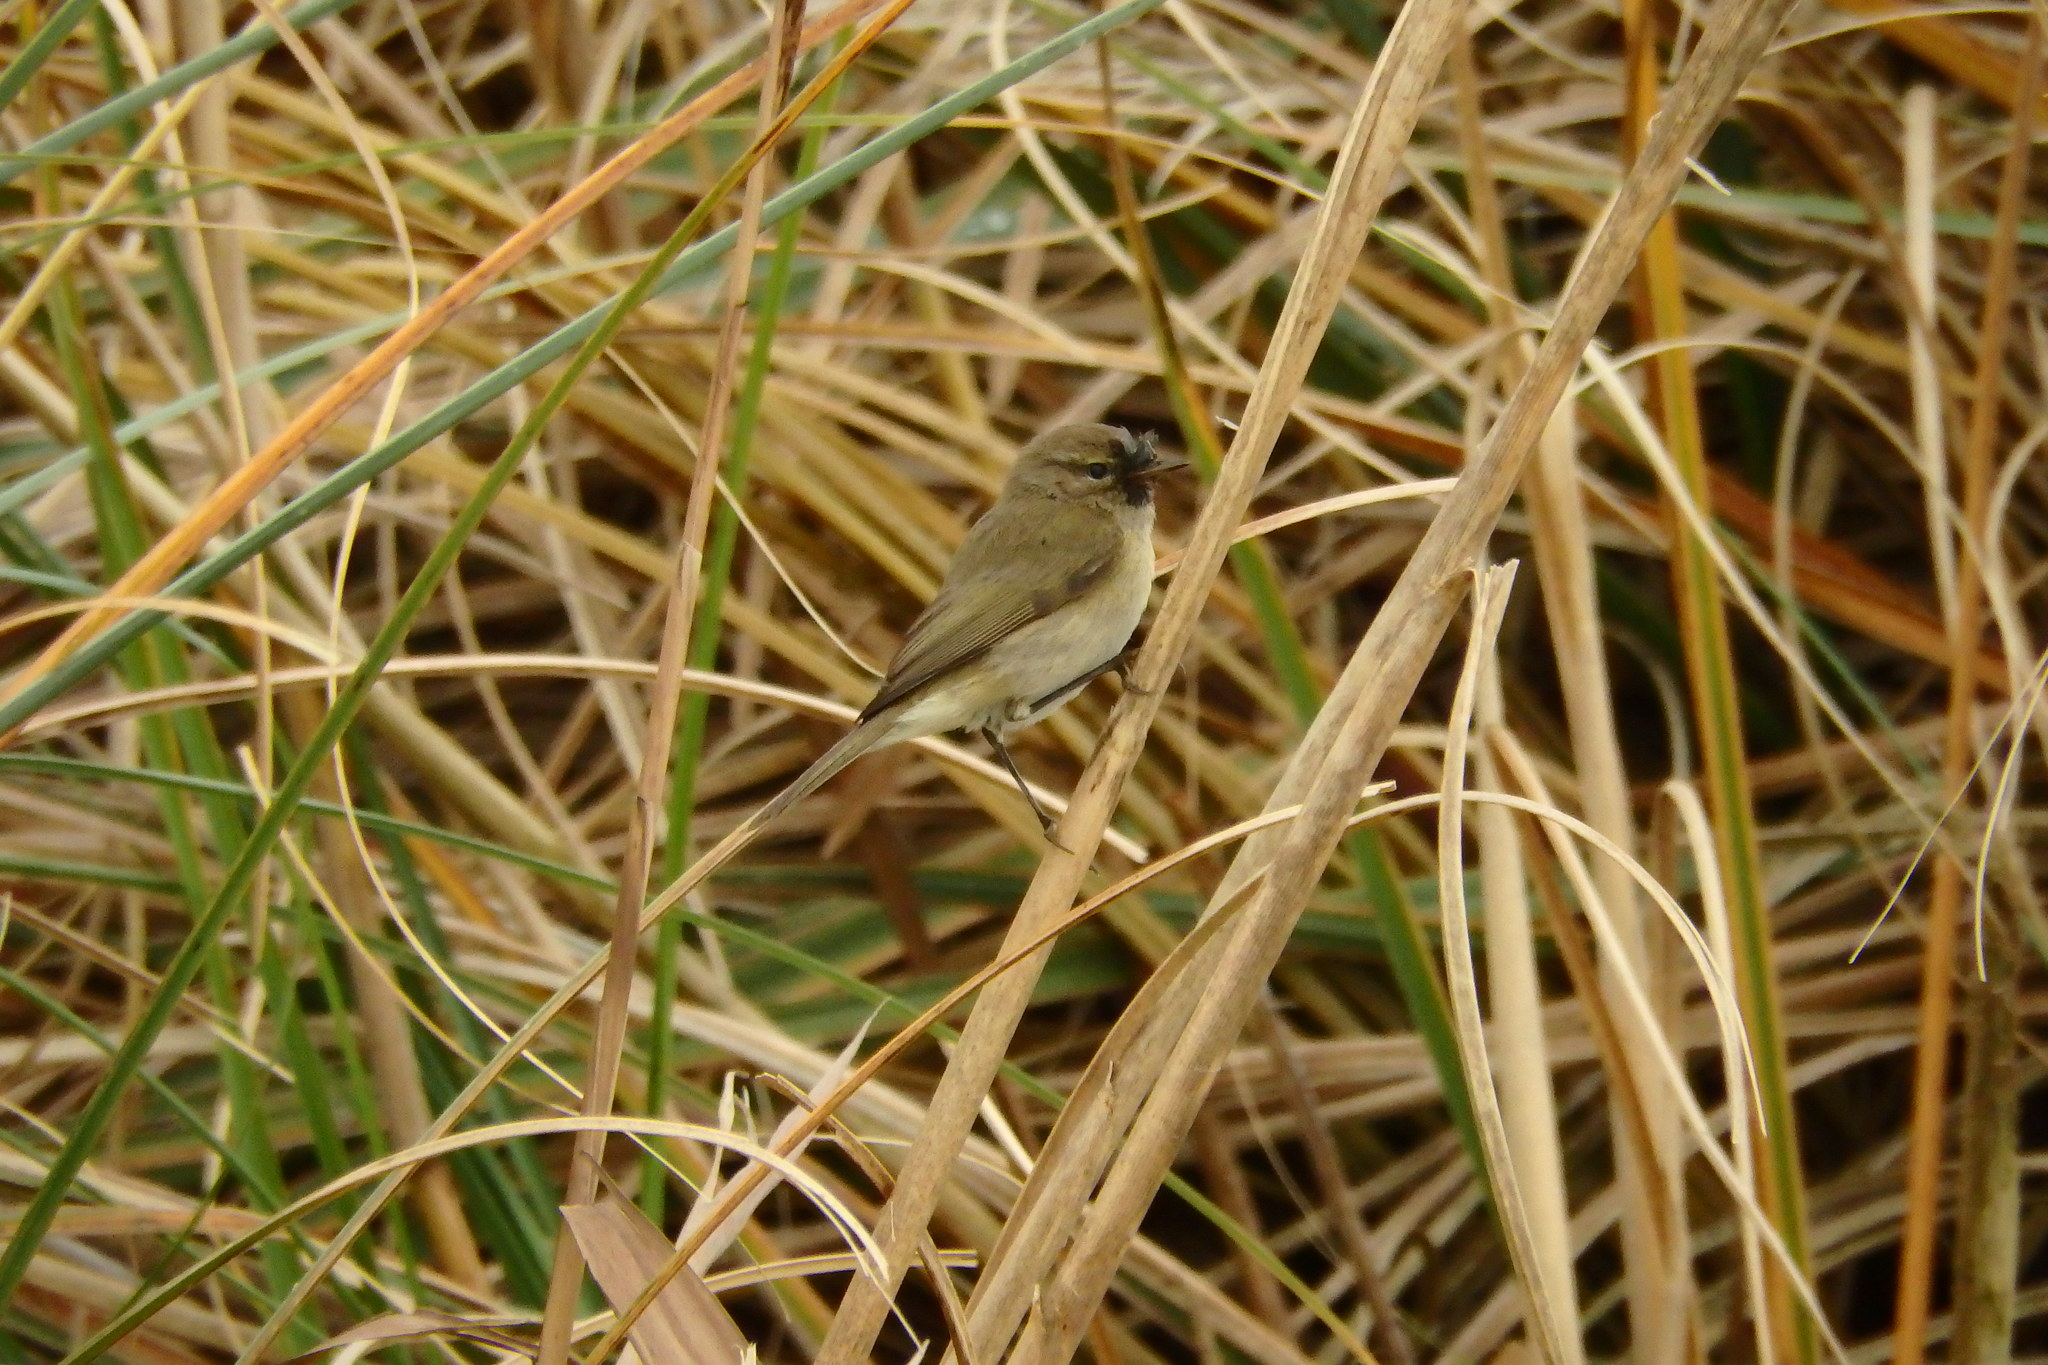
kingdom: Animalia
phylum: Chordata
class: Aves
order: Passeriformes
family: Phylloscopidae
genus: Phylloscopus
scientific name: Phylloscopus collybita
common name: Common chiffchaff
